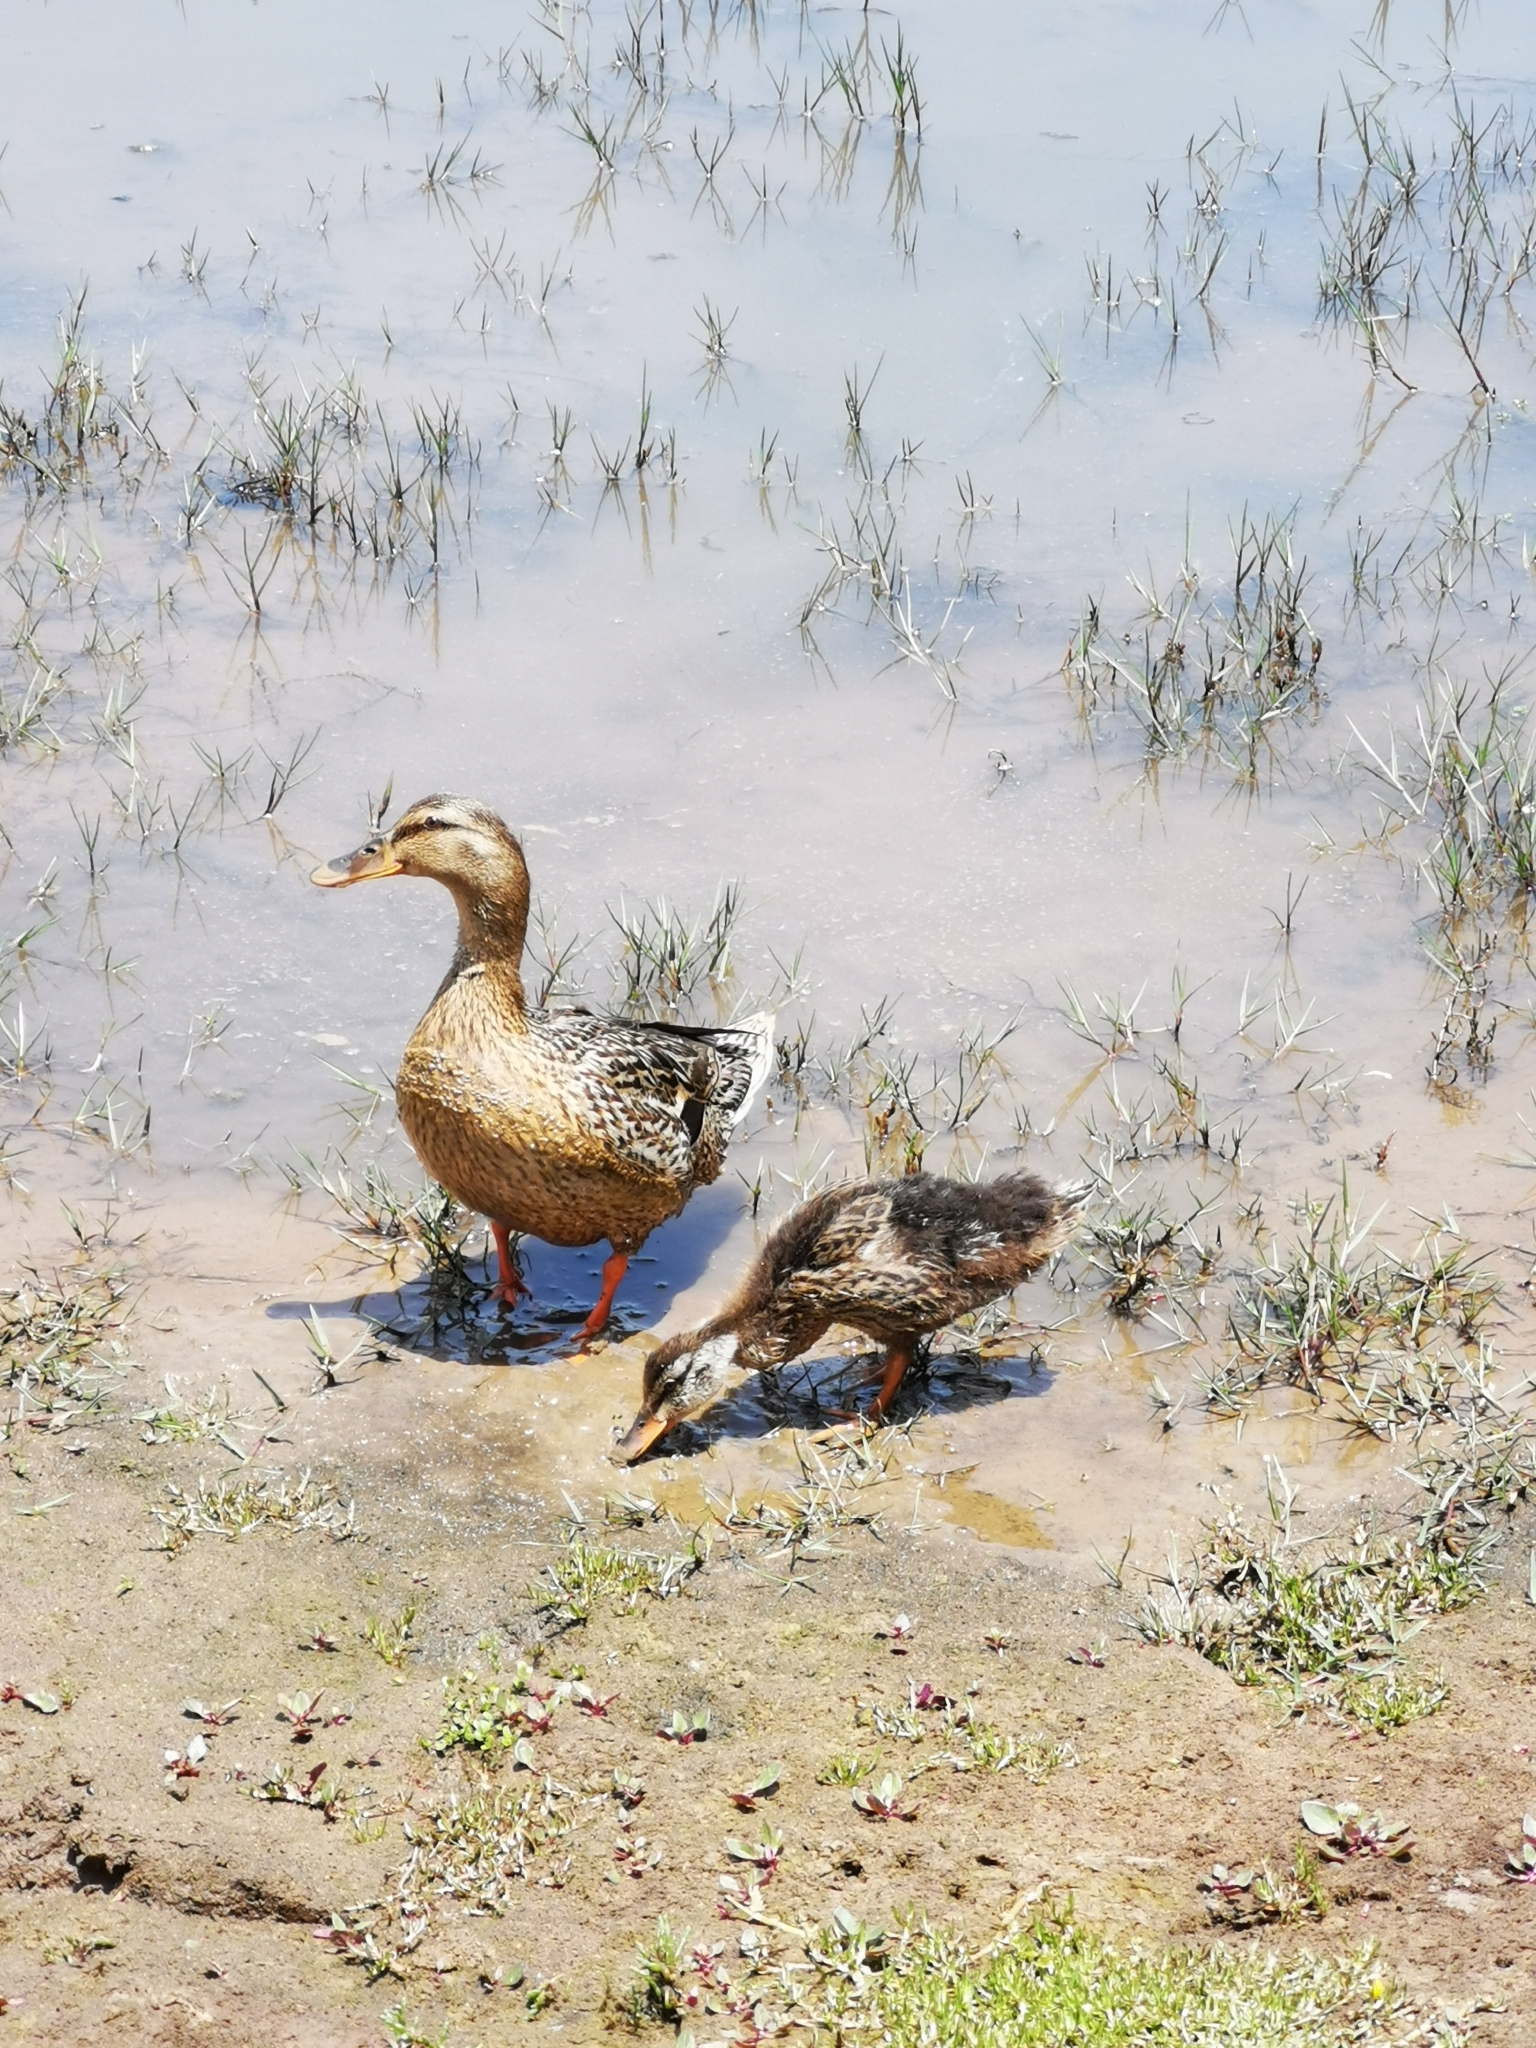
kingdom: Animalia
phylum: Chordata
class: Aves
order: Anseriformes
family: Anatidae
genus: Anas
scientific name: Anas platyrhynchos
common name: Mallard
